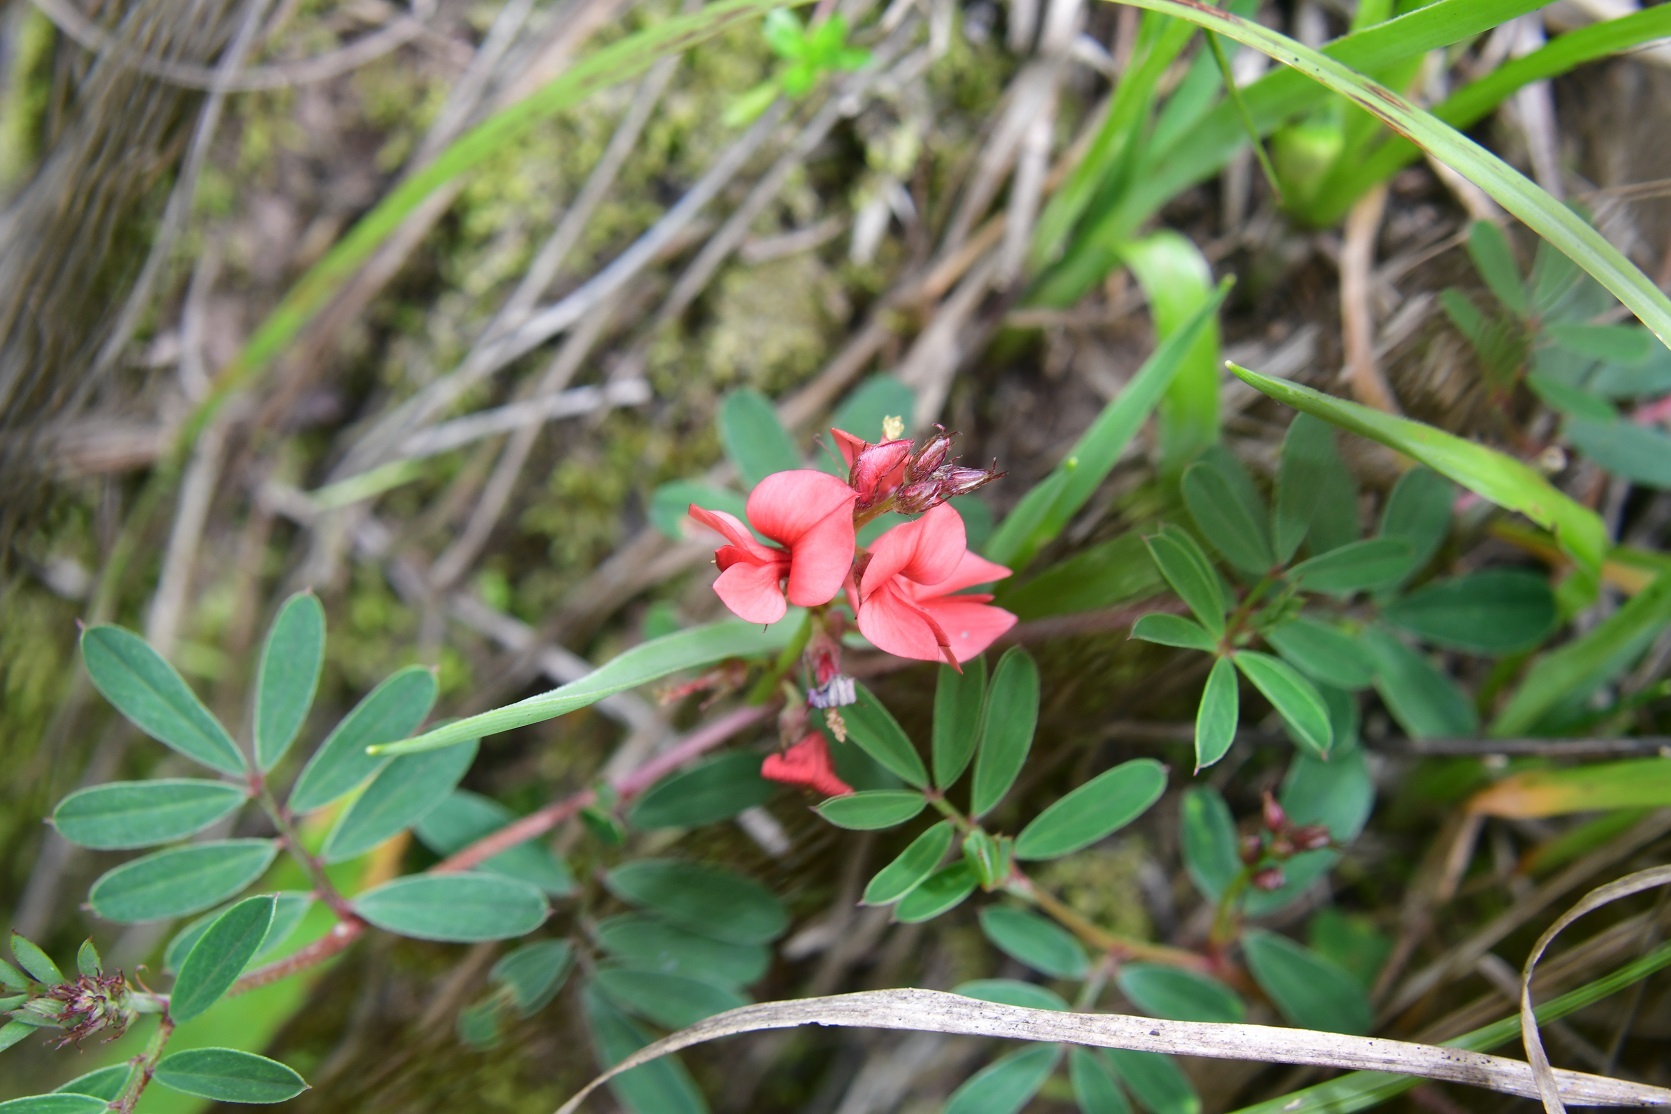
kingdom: Plantae
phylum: Tracheophyta
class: Magnoliopsida
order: Fabales
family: Fabaceae
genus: Indigofera
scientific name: Indigofera miniata
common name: Coast indigo
